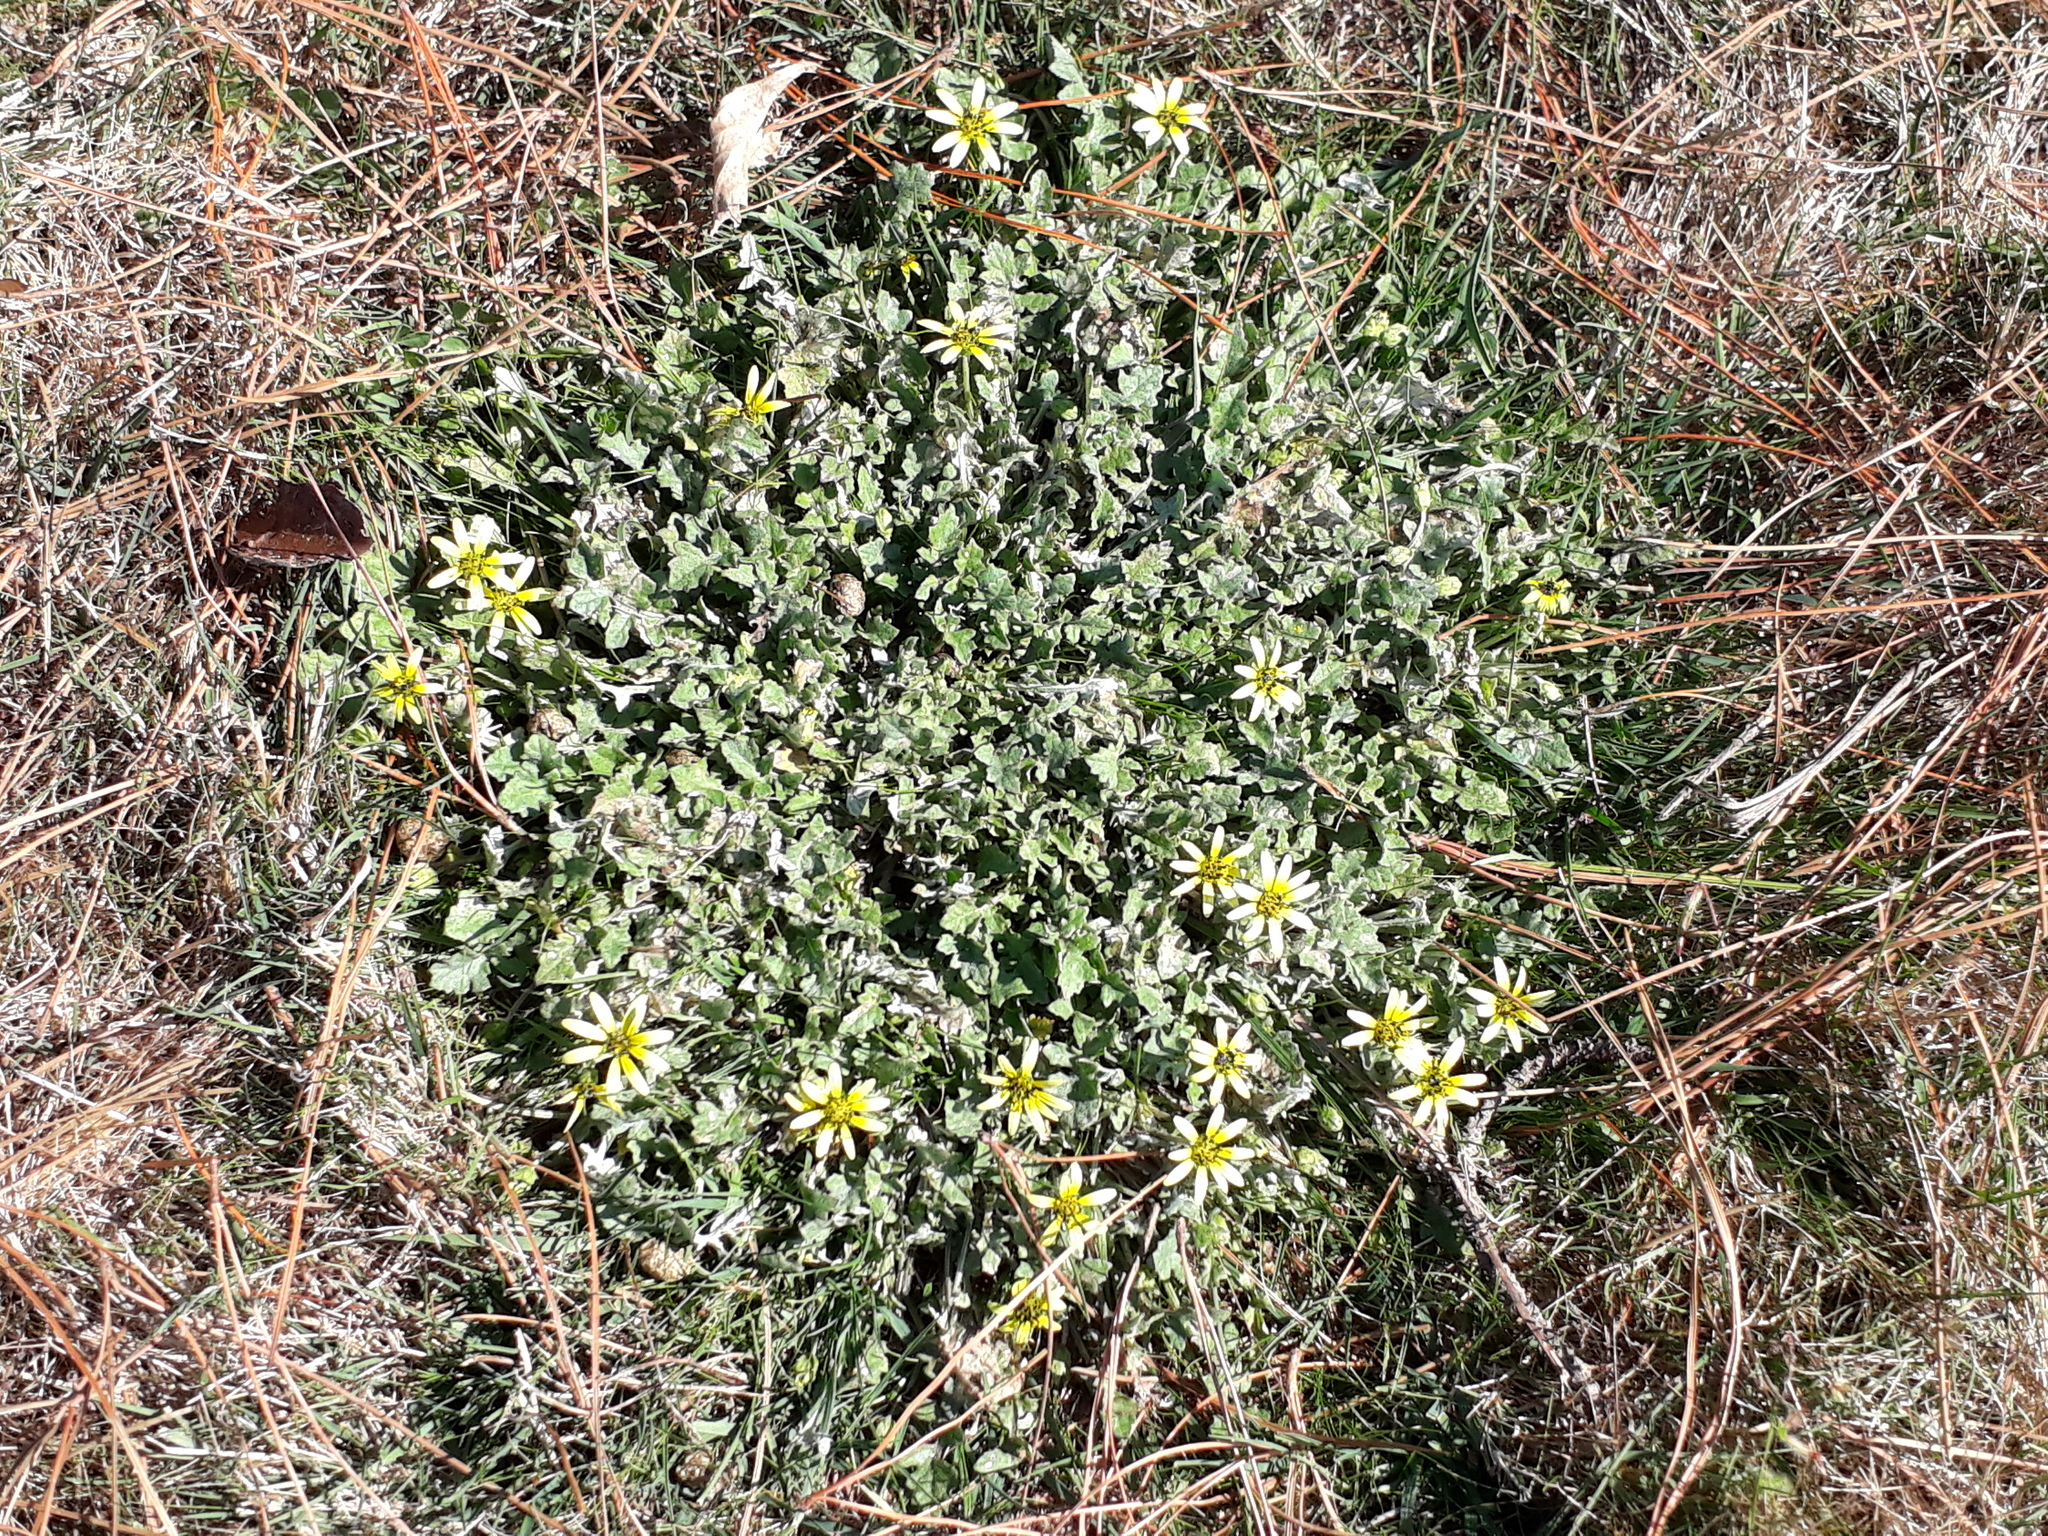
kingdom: Plantae
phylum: Tracheophyta
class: Magnoliopsida
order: Asterales
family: Asteraceae
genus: Arctotheca
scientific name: Arctotheca calendula
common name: Capeweed
